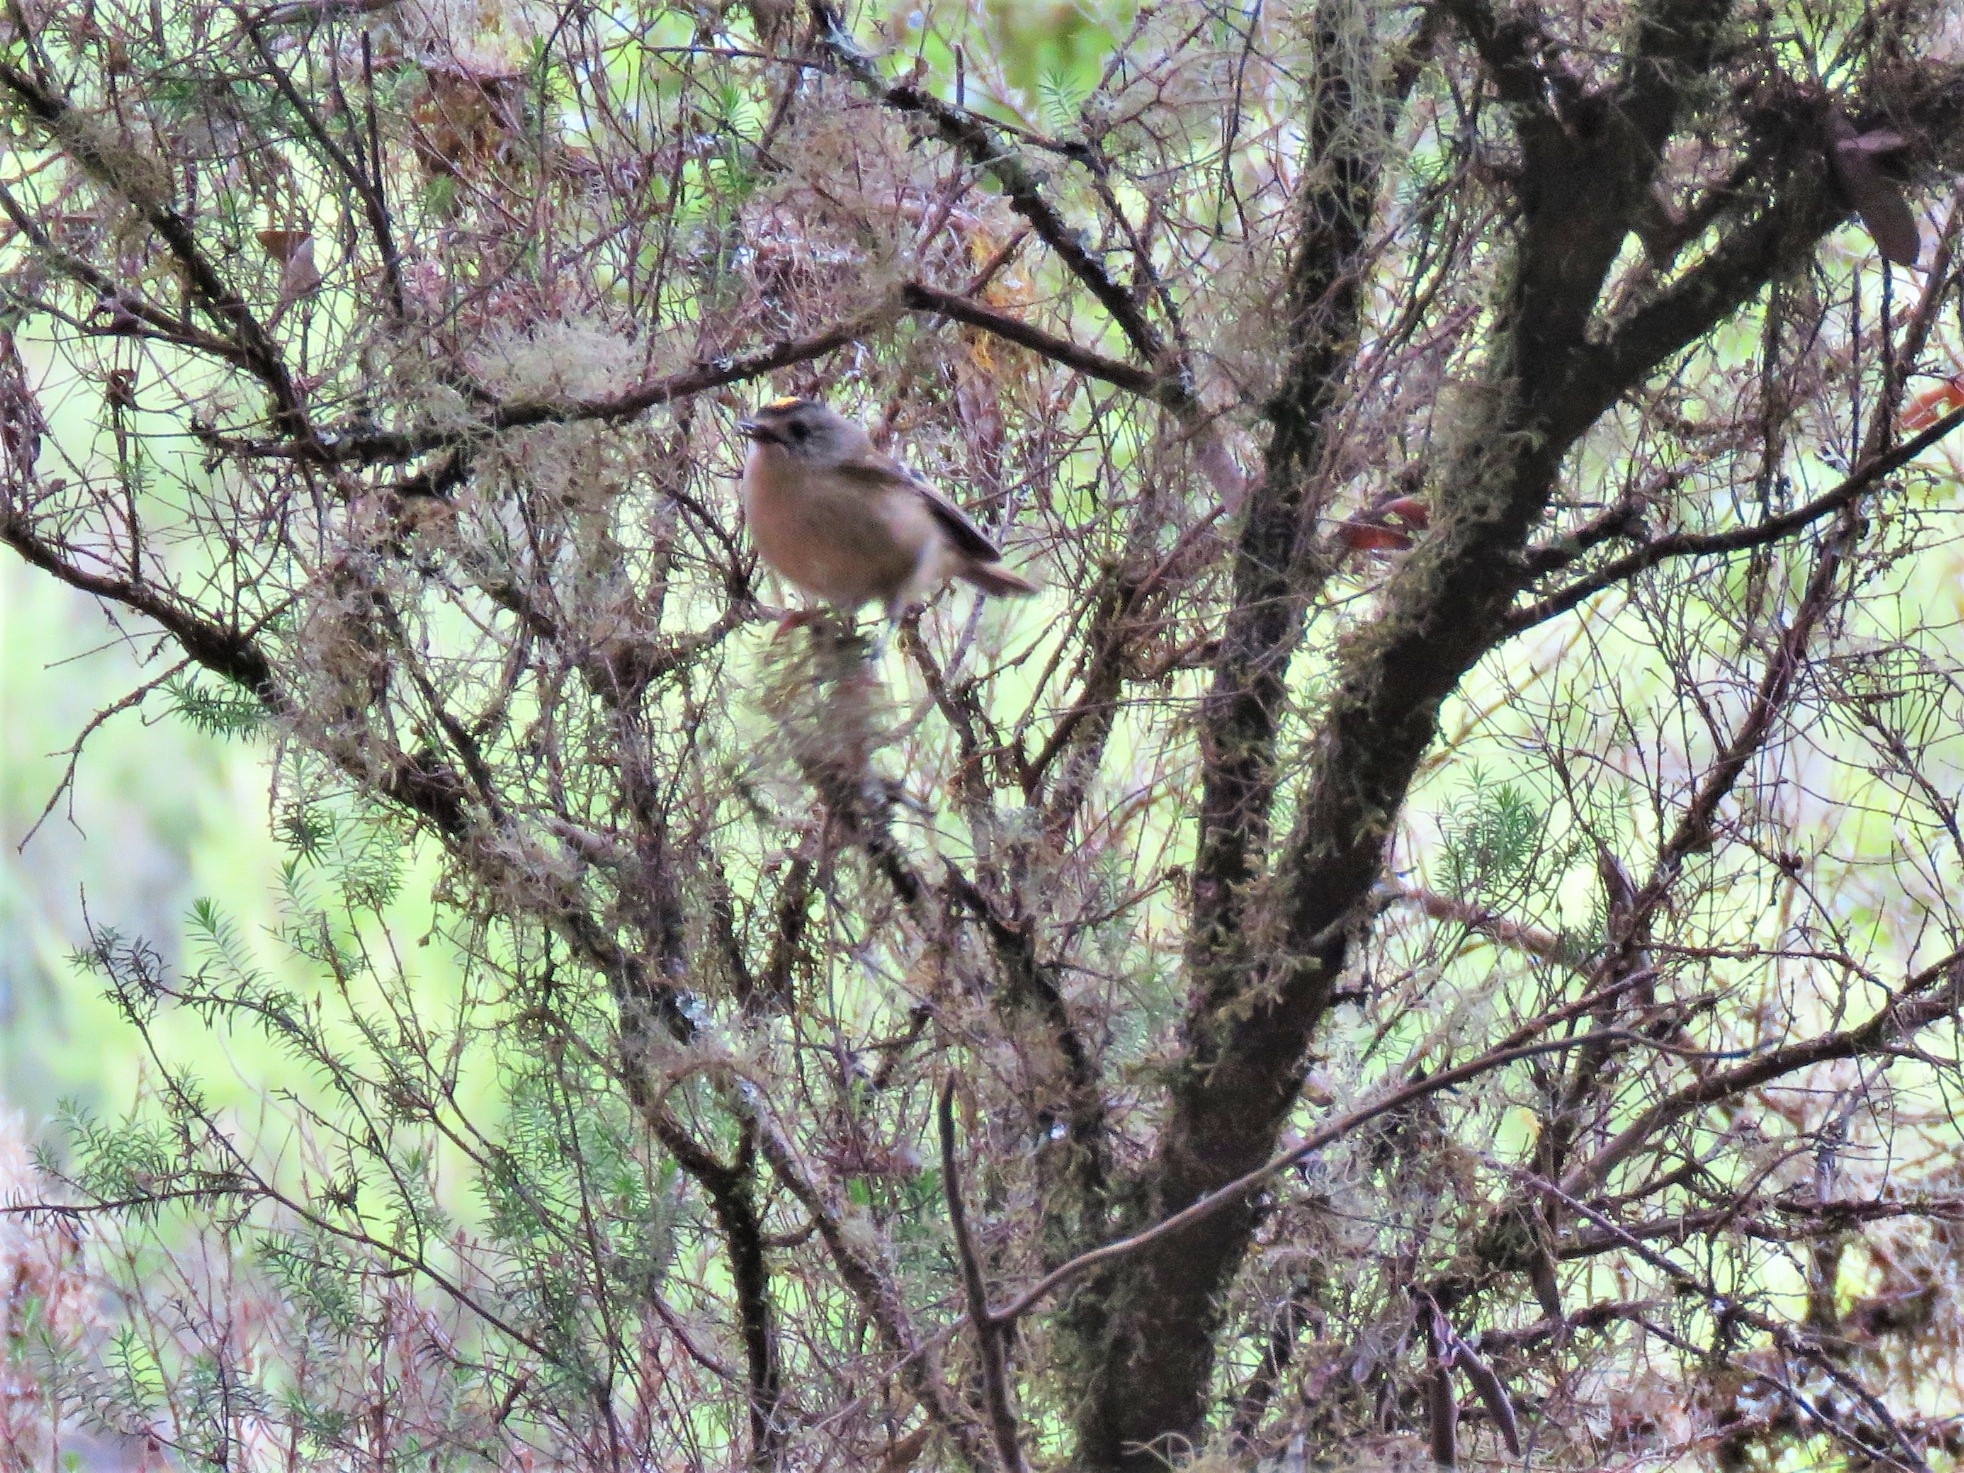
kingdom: Animalia
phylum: Chordata
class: Aves
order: Passeriformes
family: Regulidae
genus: Regulus
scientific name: Regulus regulus
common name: Goldcrest
